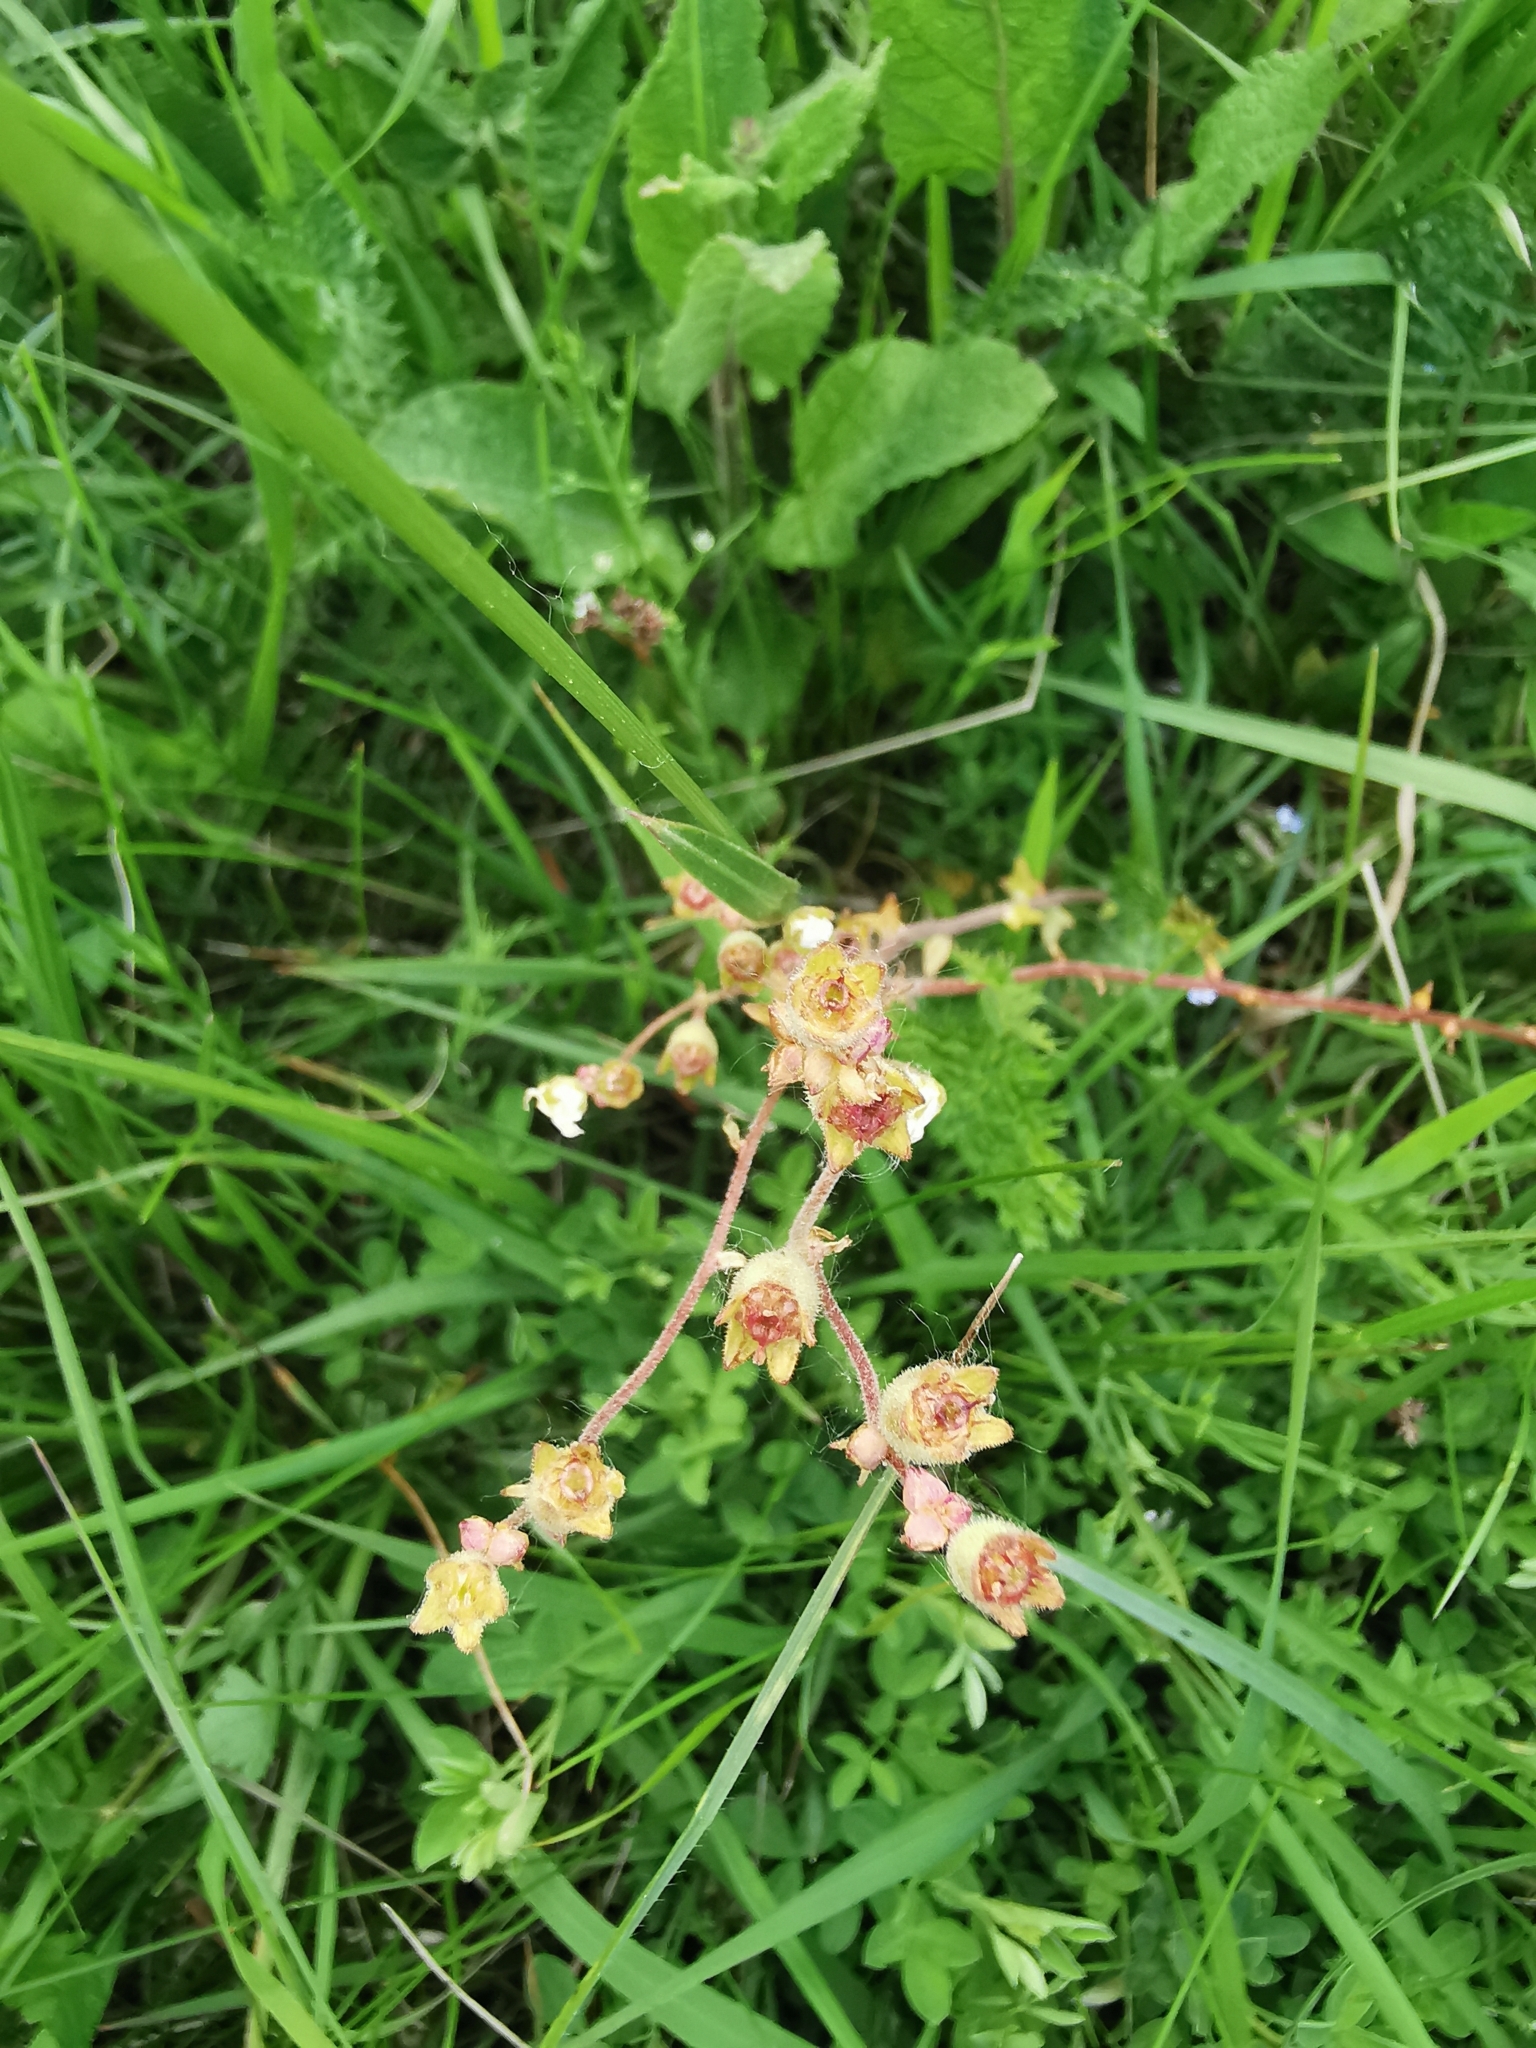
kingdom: Plantae
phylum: Tracheophyta
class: Magnoliopsida
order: Saxifragales
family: Saxifragaceae
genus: Saxifraga
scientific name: Saxifraga bulbifera
